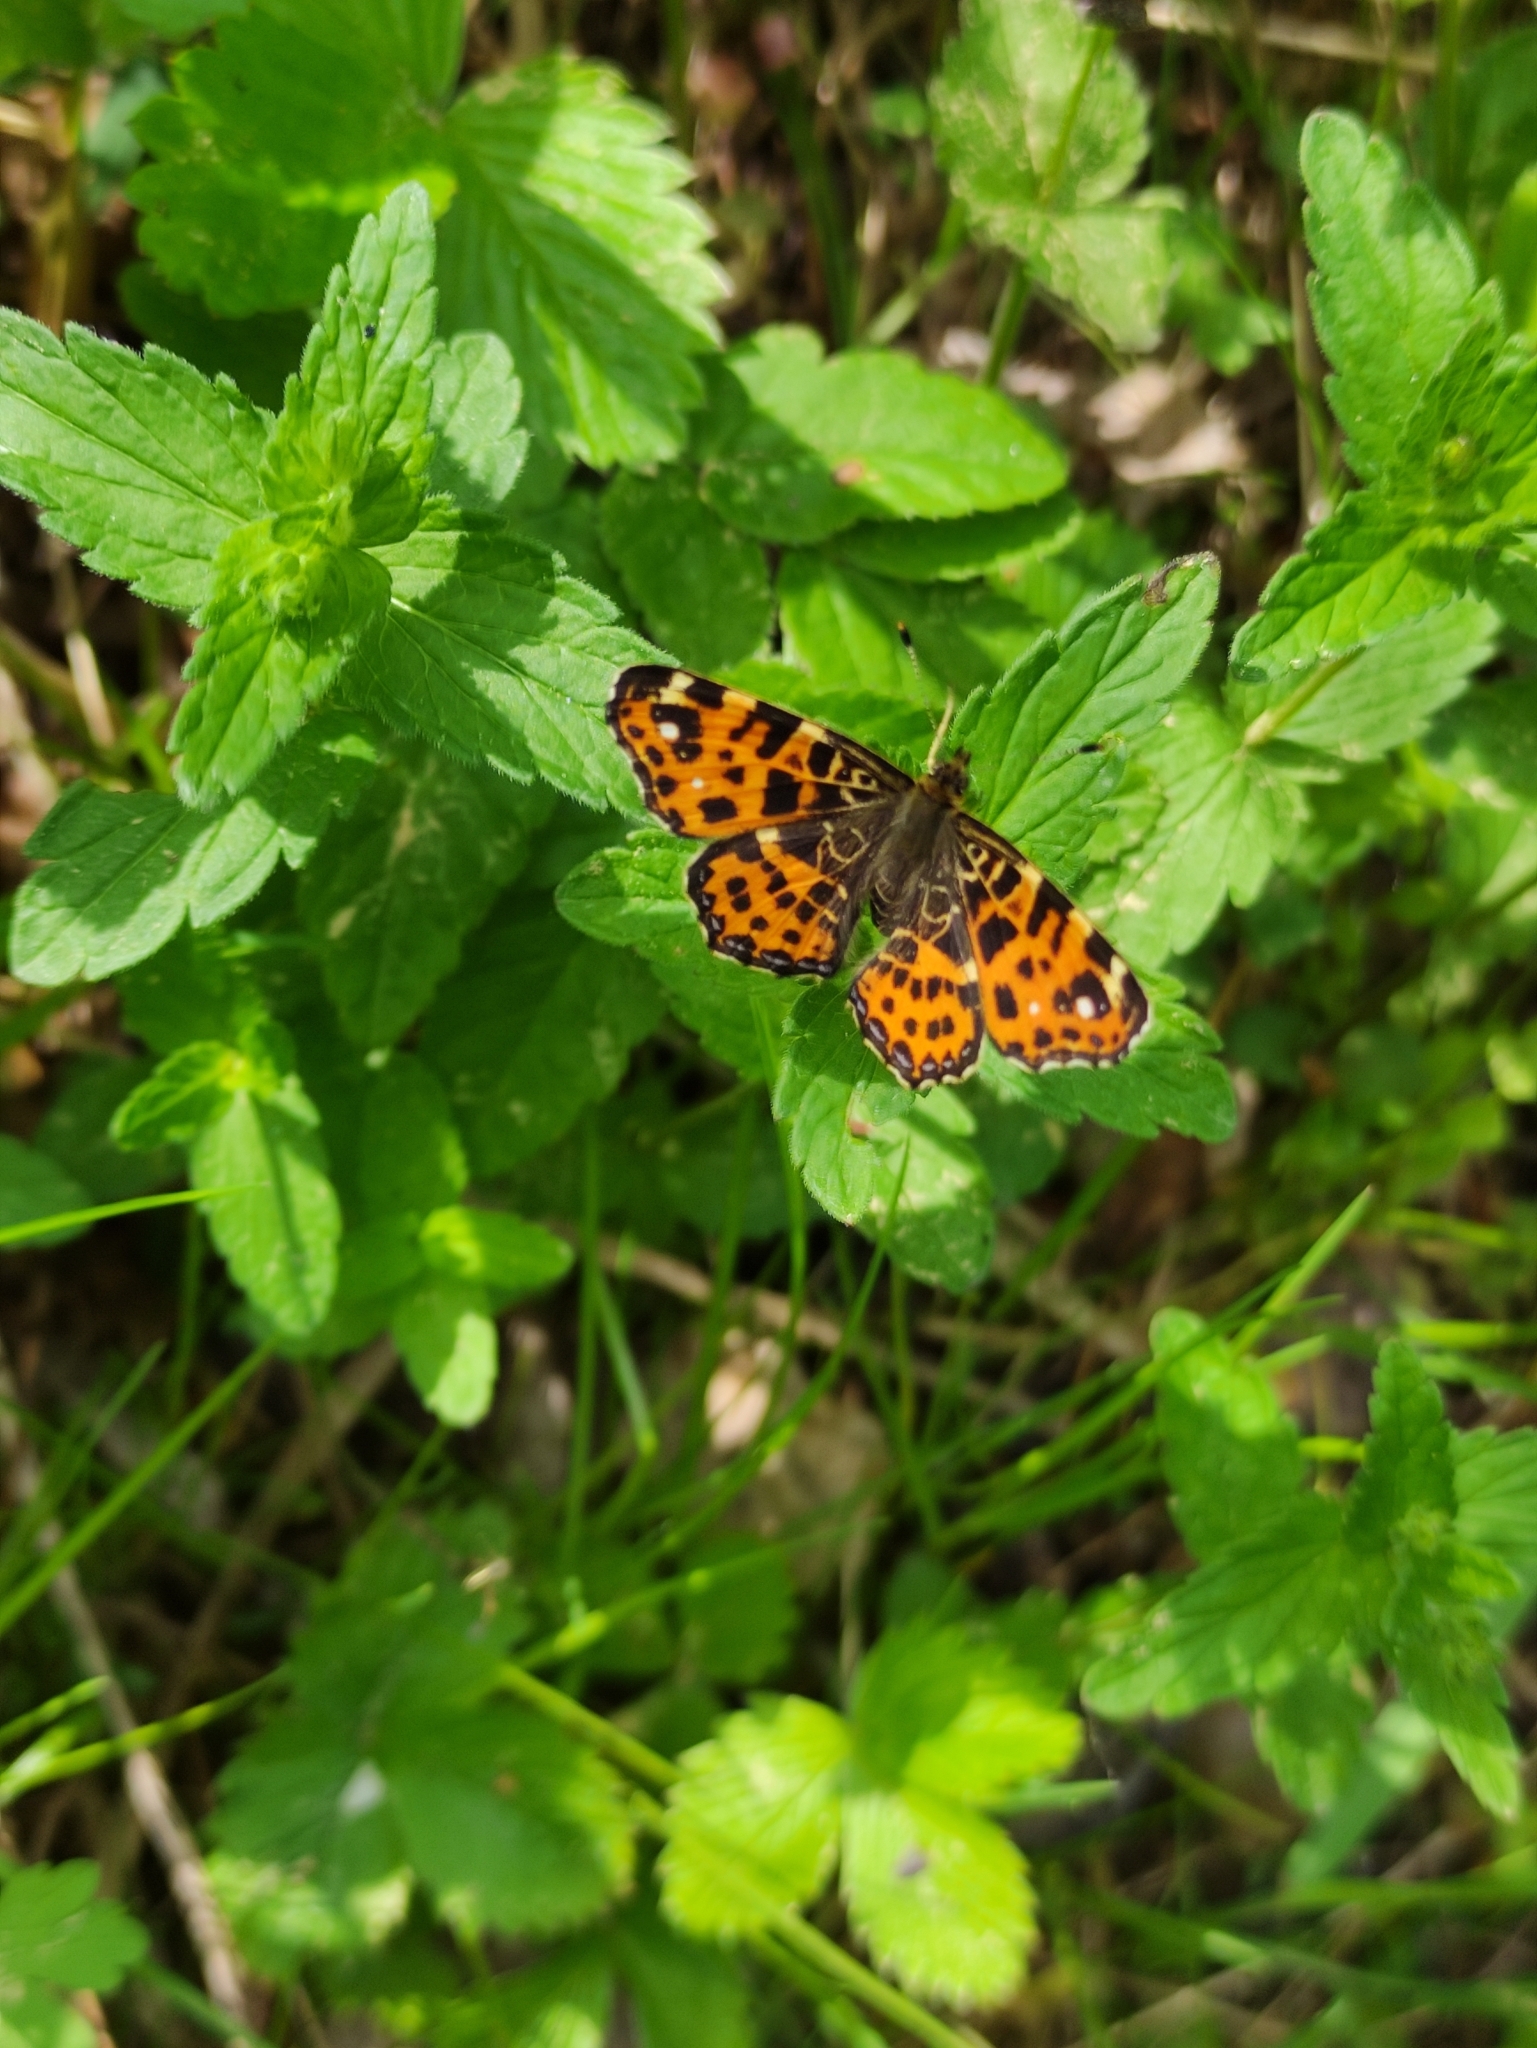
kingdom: Animalia
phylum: Arthropoda
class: Insecta
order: Lepidoptera
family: Nymphalidae
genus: Araschnia
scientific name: Araschnia levana
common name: Map butterfly
